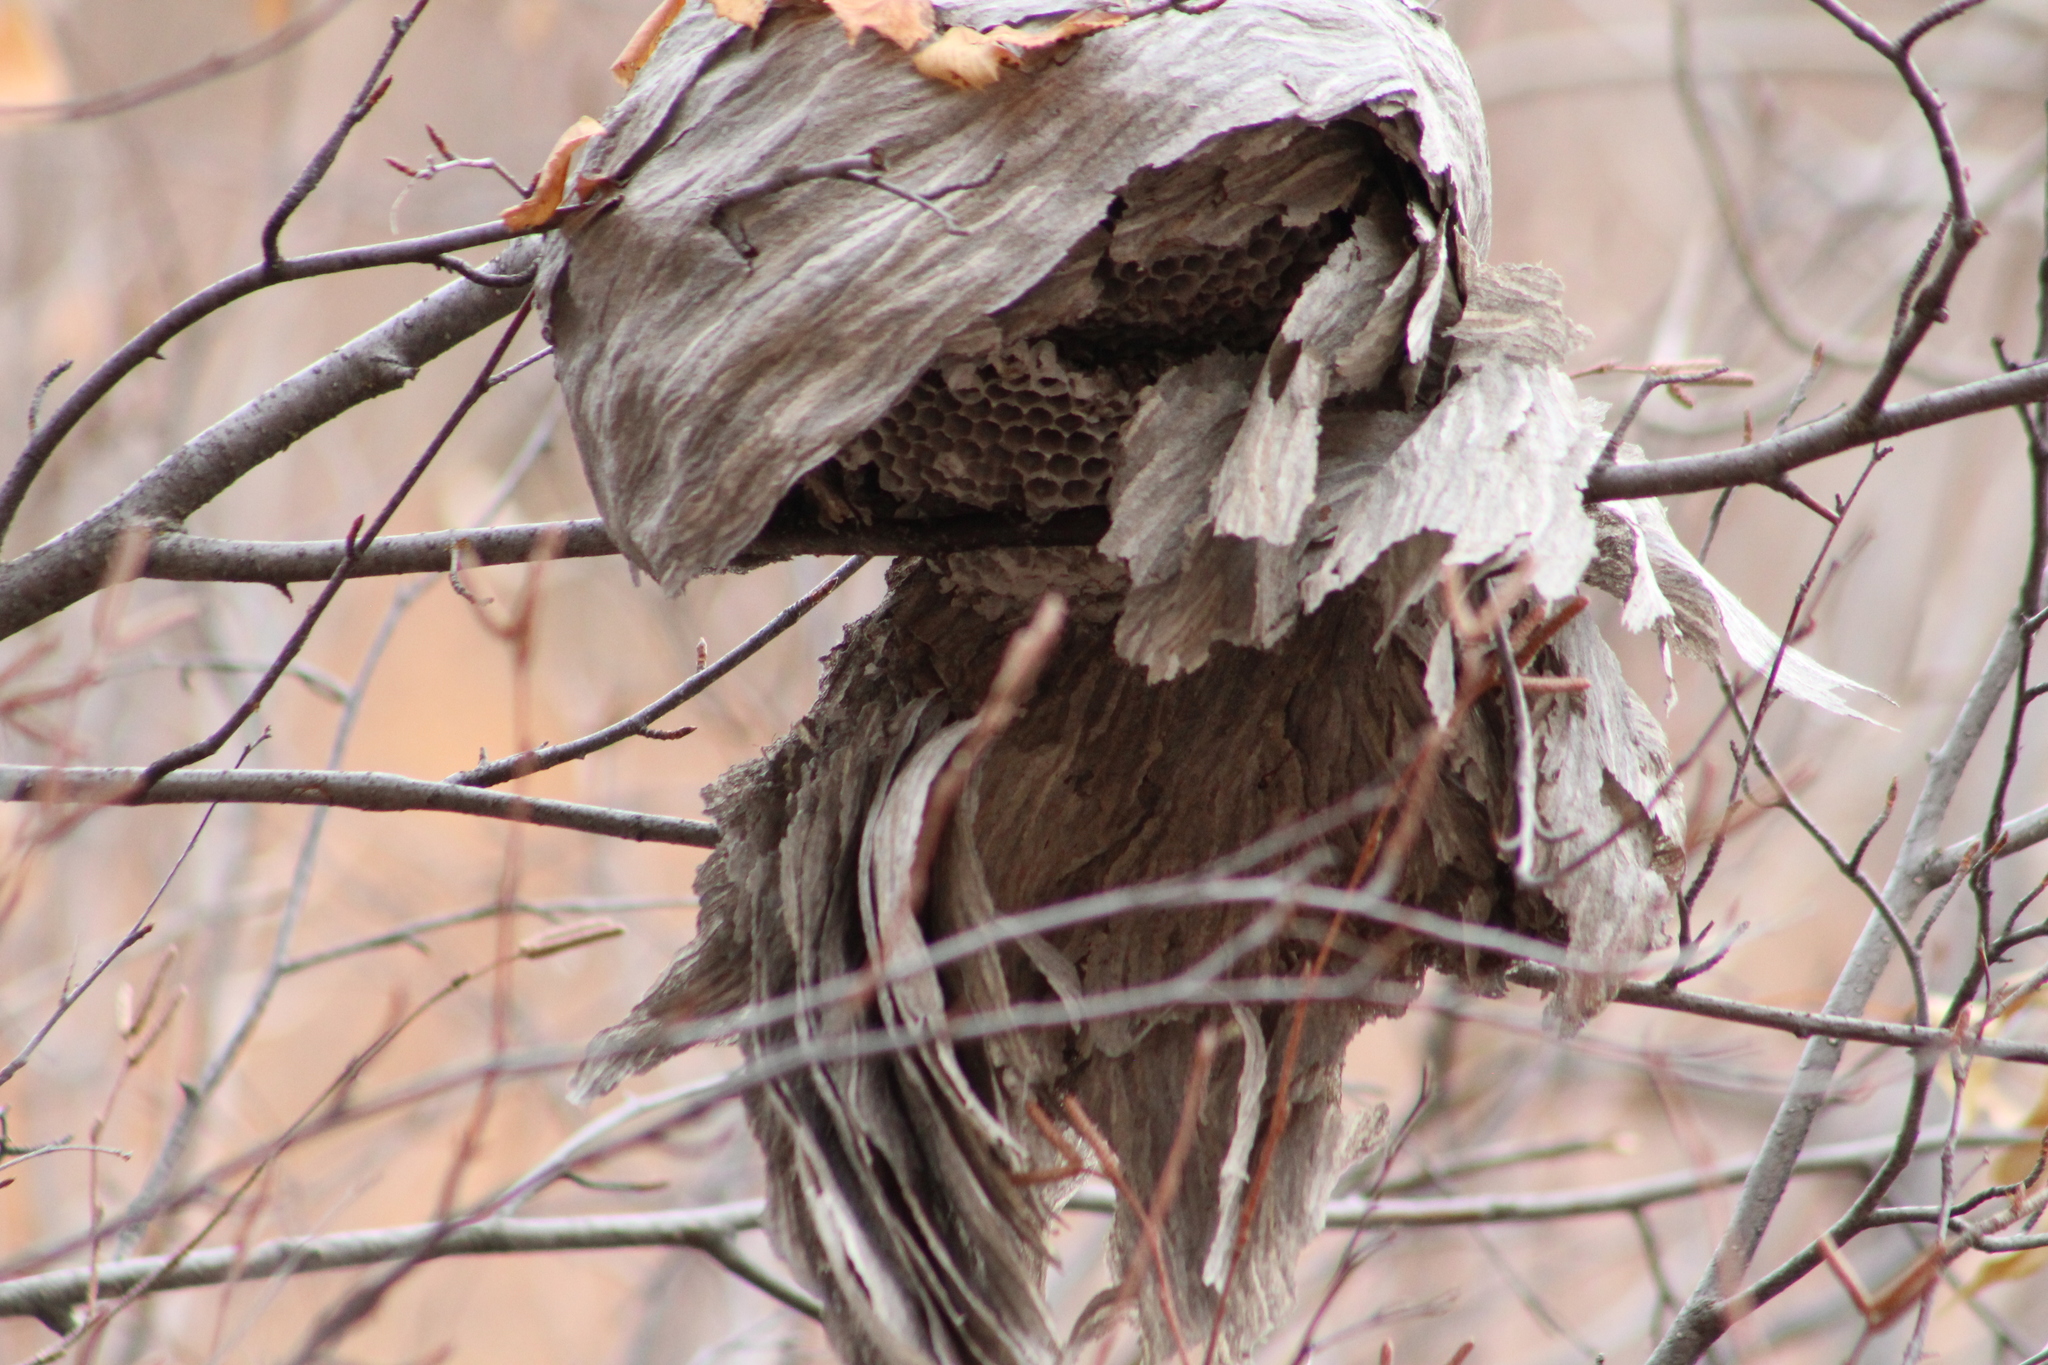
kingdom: Animalia
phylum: Arthropoda
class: Insecta
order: Hymenoptera
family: Vespidae
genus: Dolichovespula
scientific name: Dolichovespula
